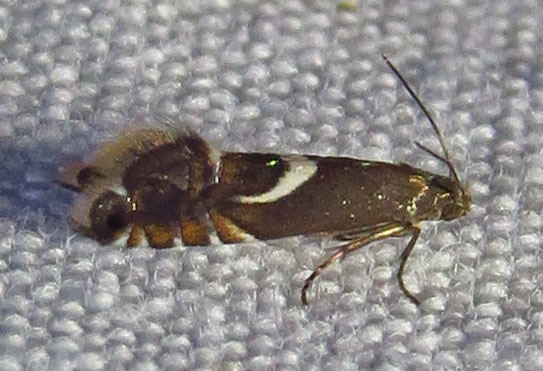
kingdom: Animalia
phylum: Arthropoda
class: Insecta
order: Lepidoptera
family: Glyphipterigidae
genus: Glyphipterix
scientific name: Glyphipterix Diploschizia impigritella
